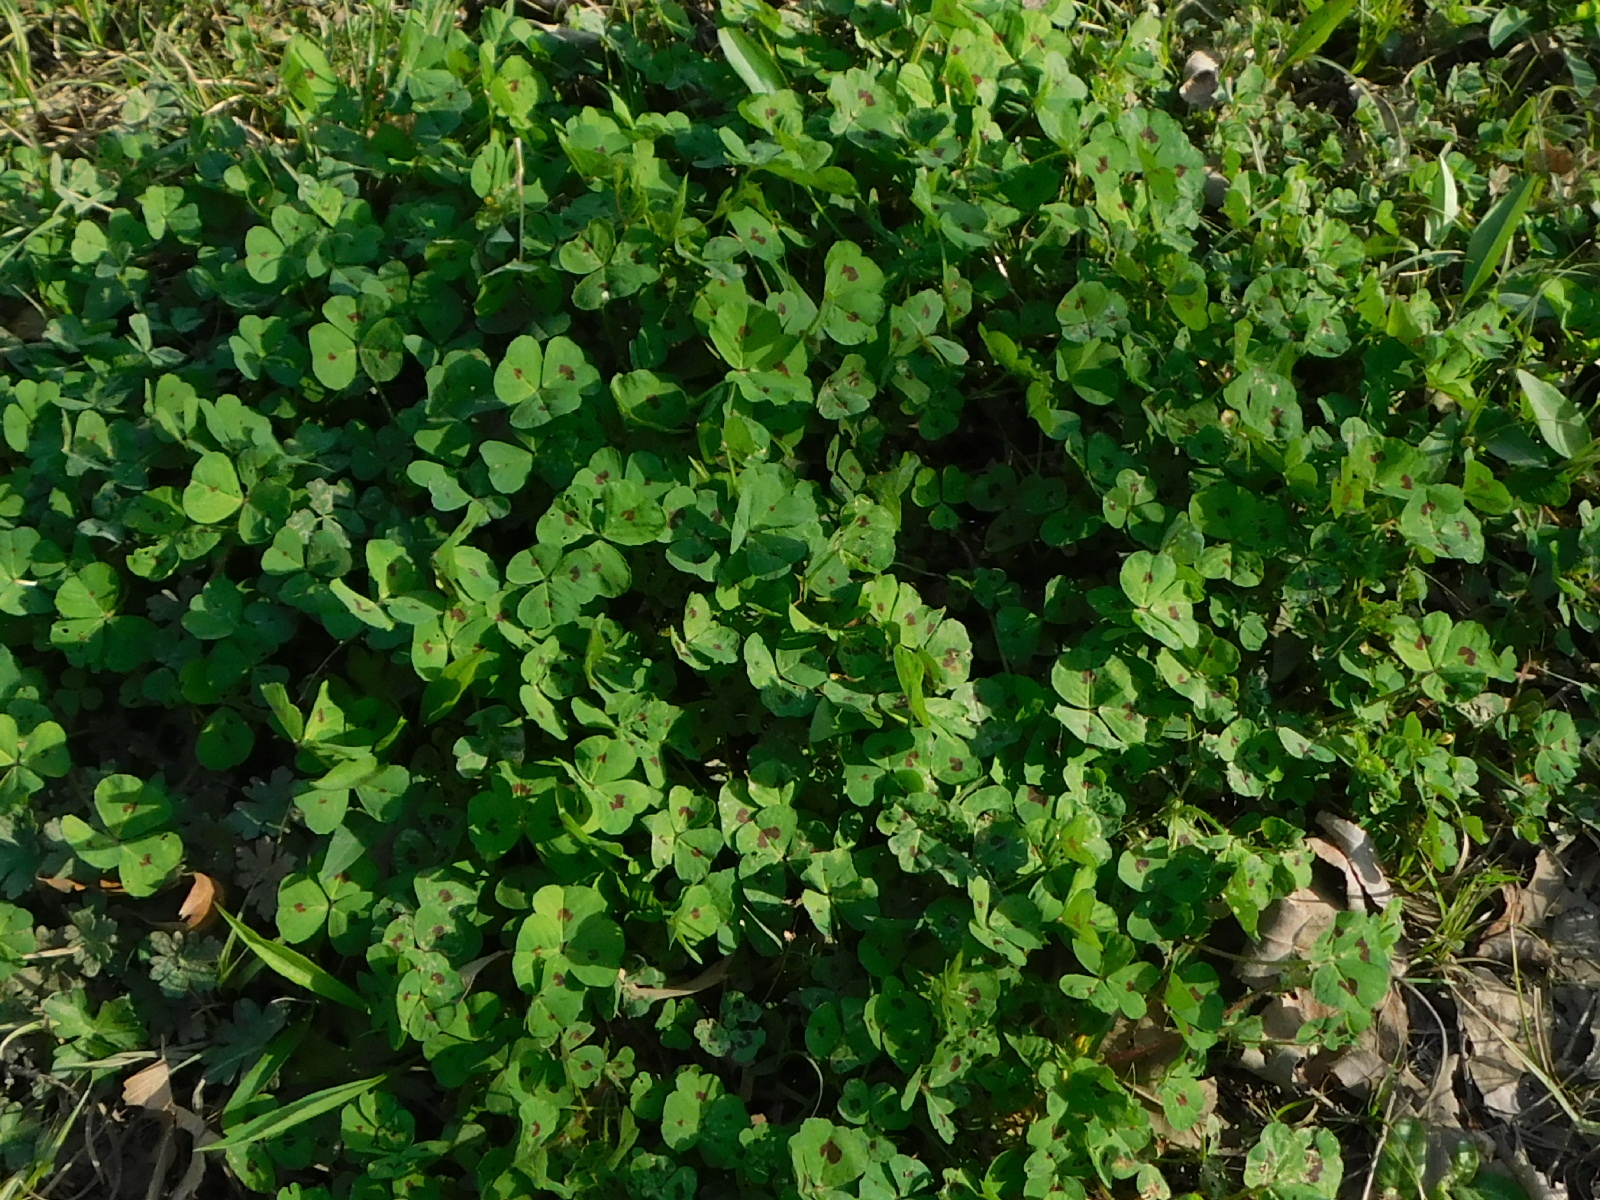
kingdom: Plantae
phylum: Tracheophyta
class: Magnoliopsida
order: Fabales
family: Fabaceae
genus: Medicago
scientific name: Medicago arabica
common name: Spotted medick
